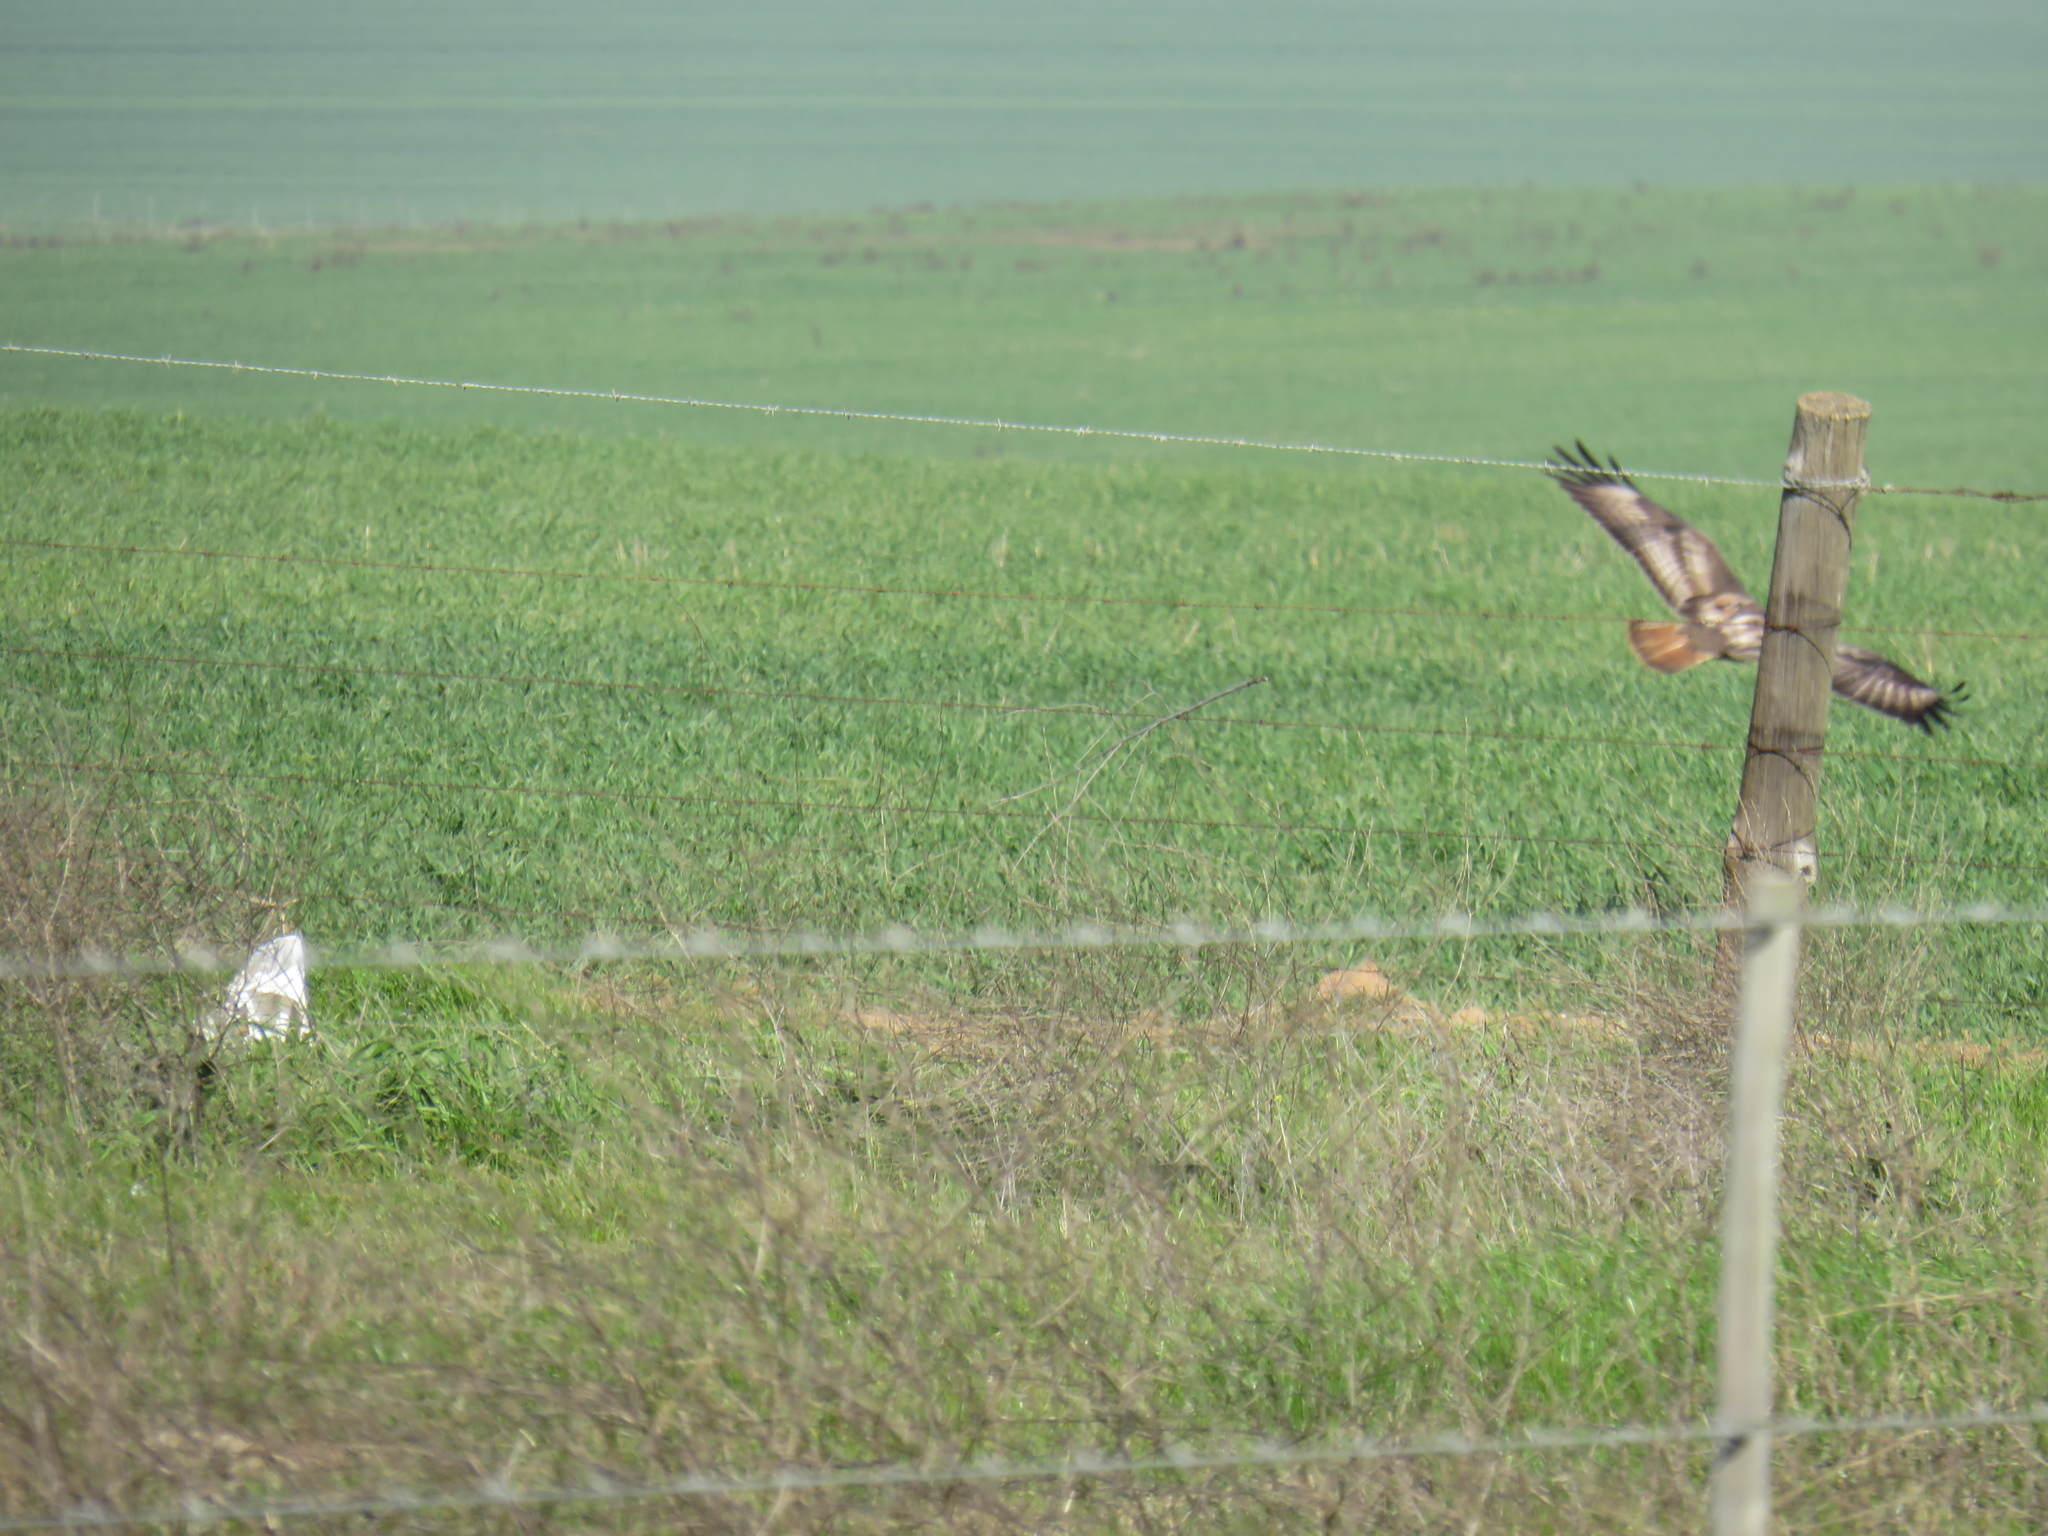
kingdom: Animalia
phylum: Chordata
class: Aves
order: Accipitriformes
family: Accipitridae
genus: Buteo
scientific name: Buteo rufofuscus
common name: Jackal buzzard
